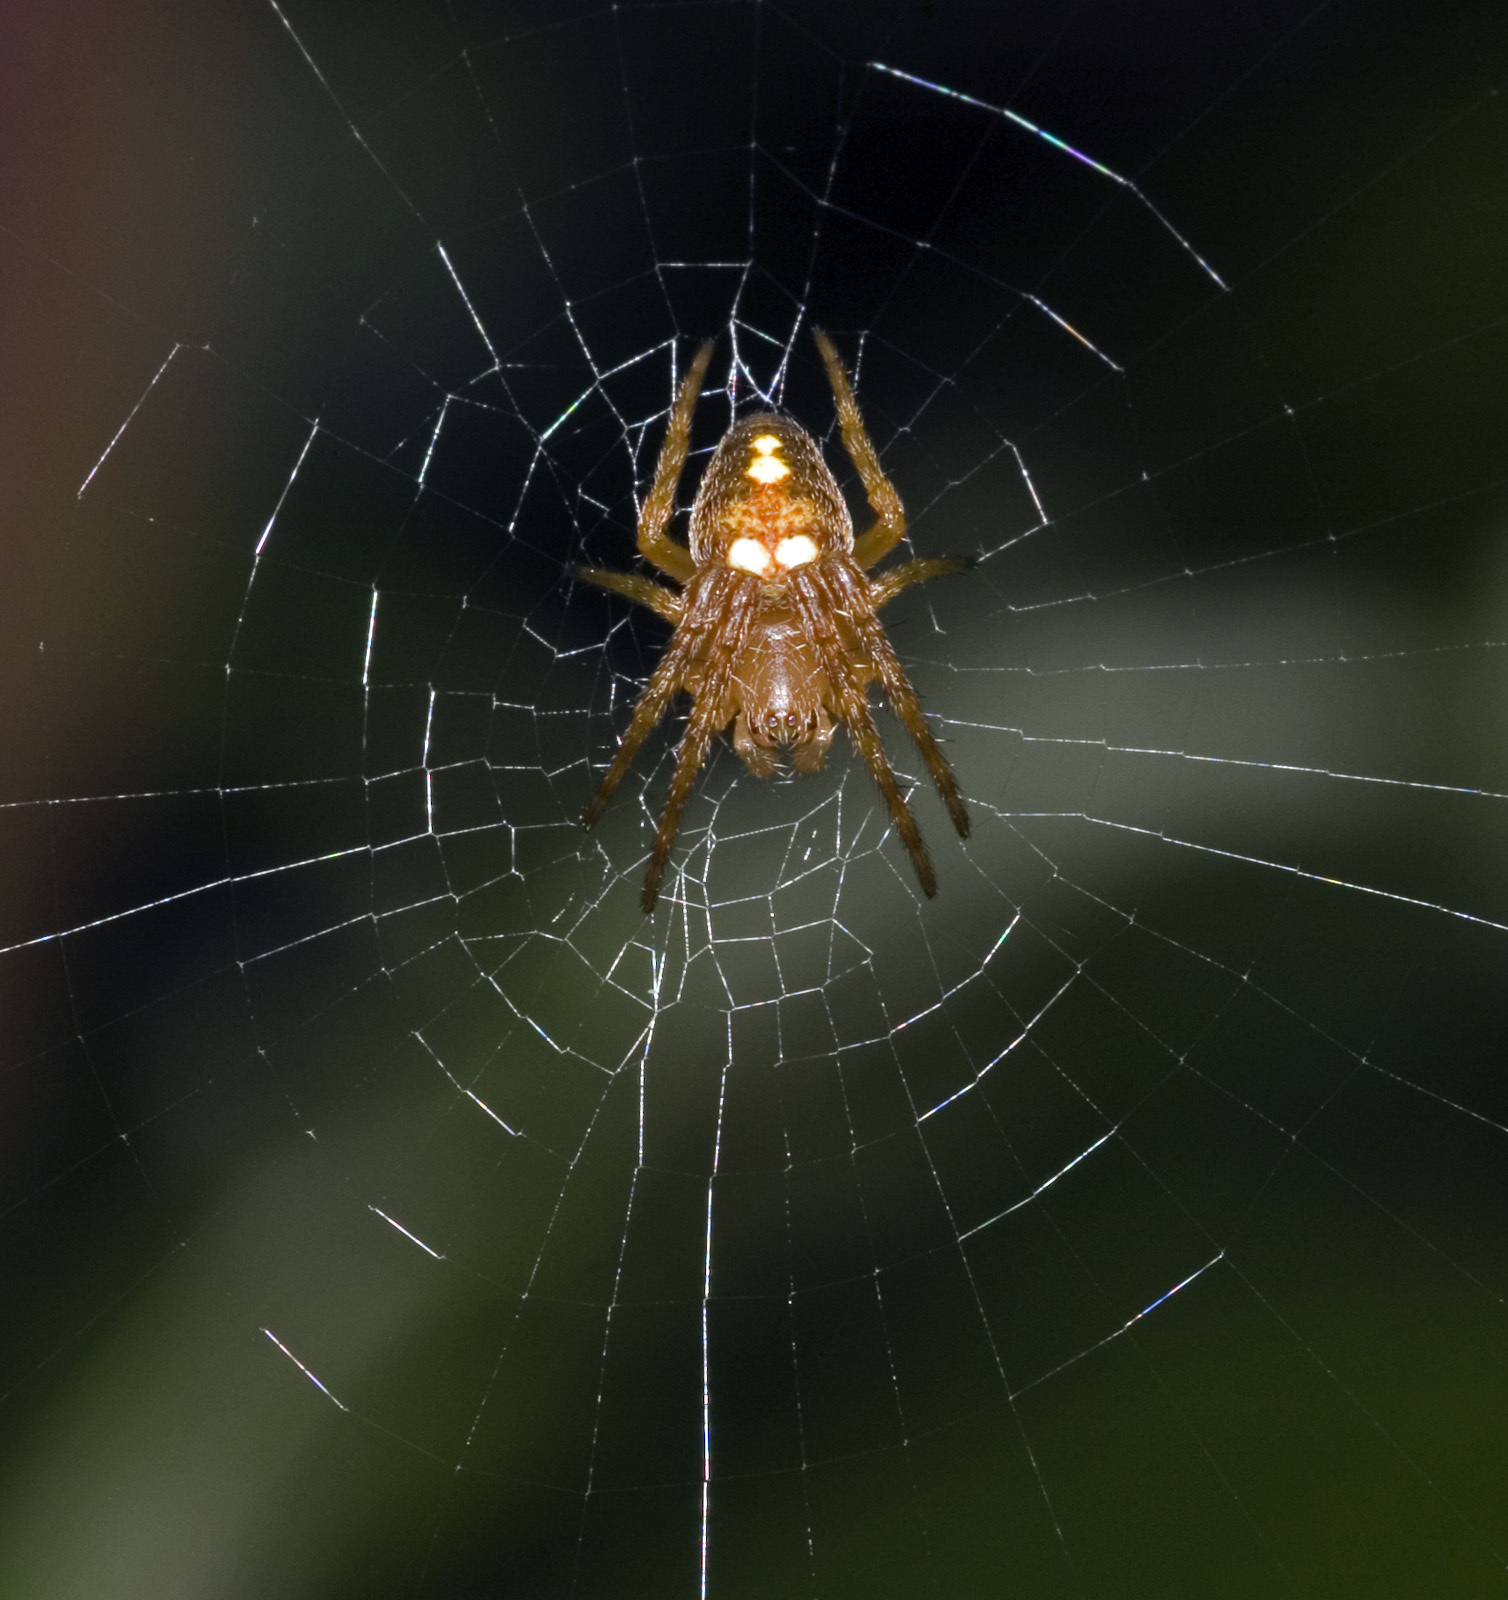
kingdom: Animalia
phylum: Arthropoda
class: Arachnida
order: Araneae
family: Araneidae
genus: Zealaranea
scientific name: Zealaranea trinotata
